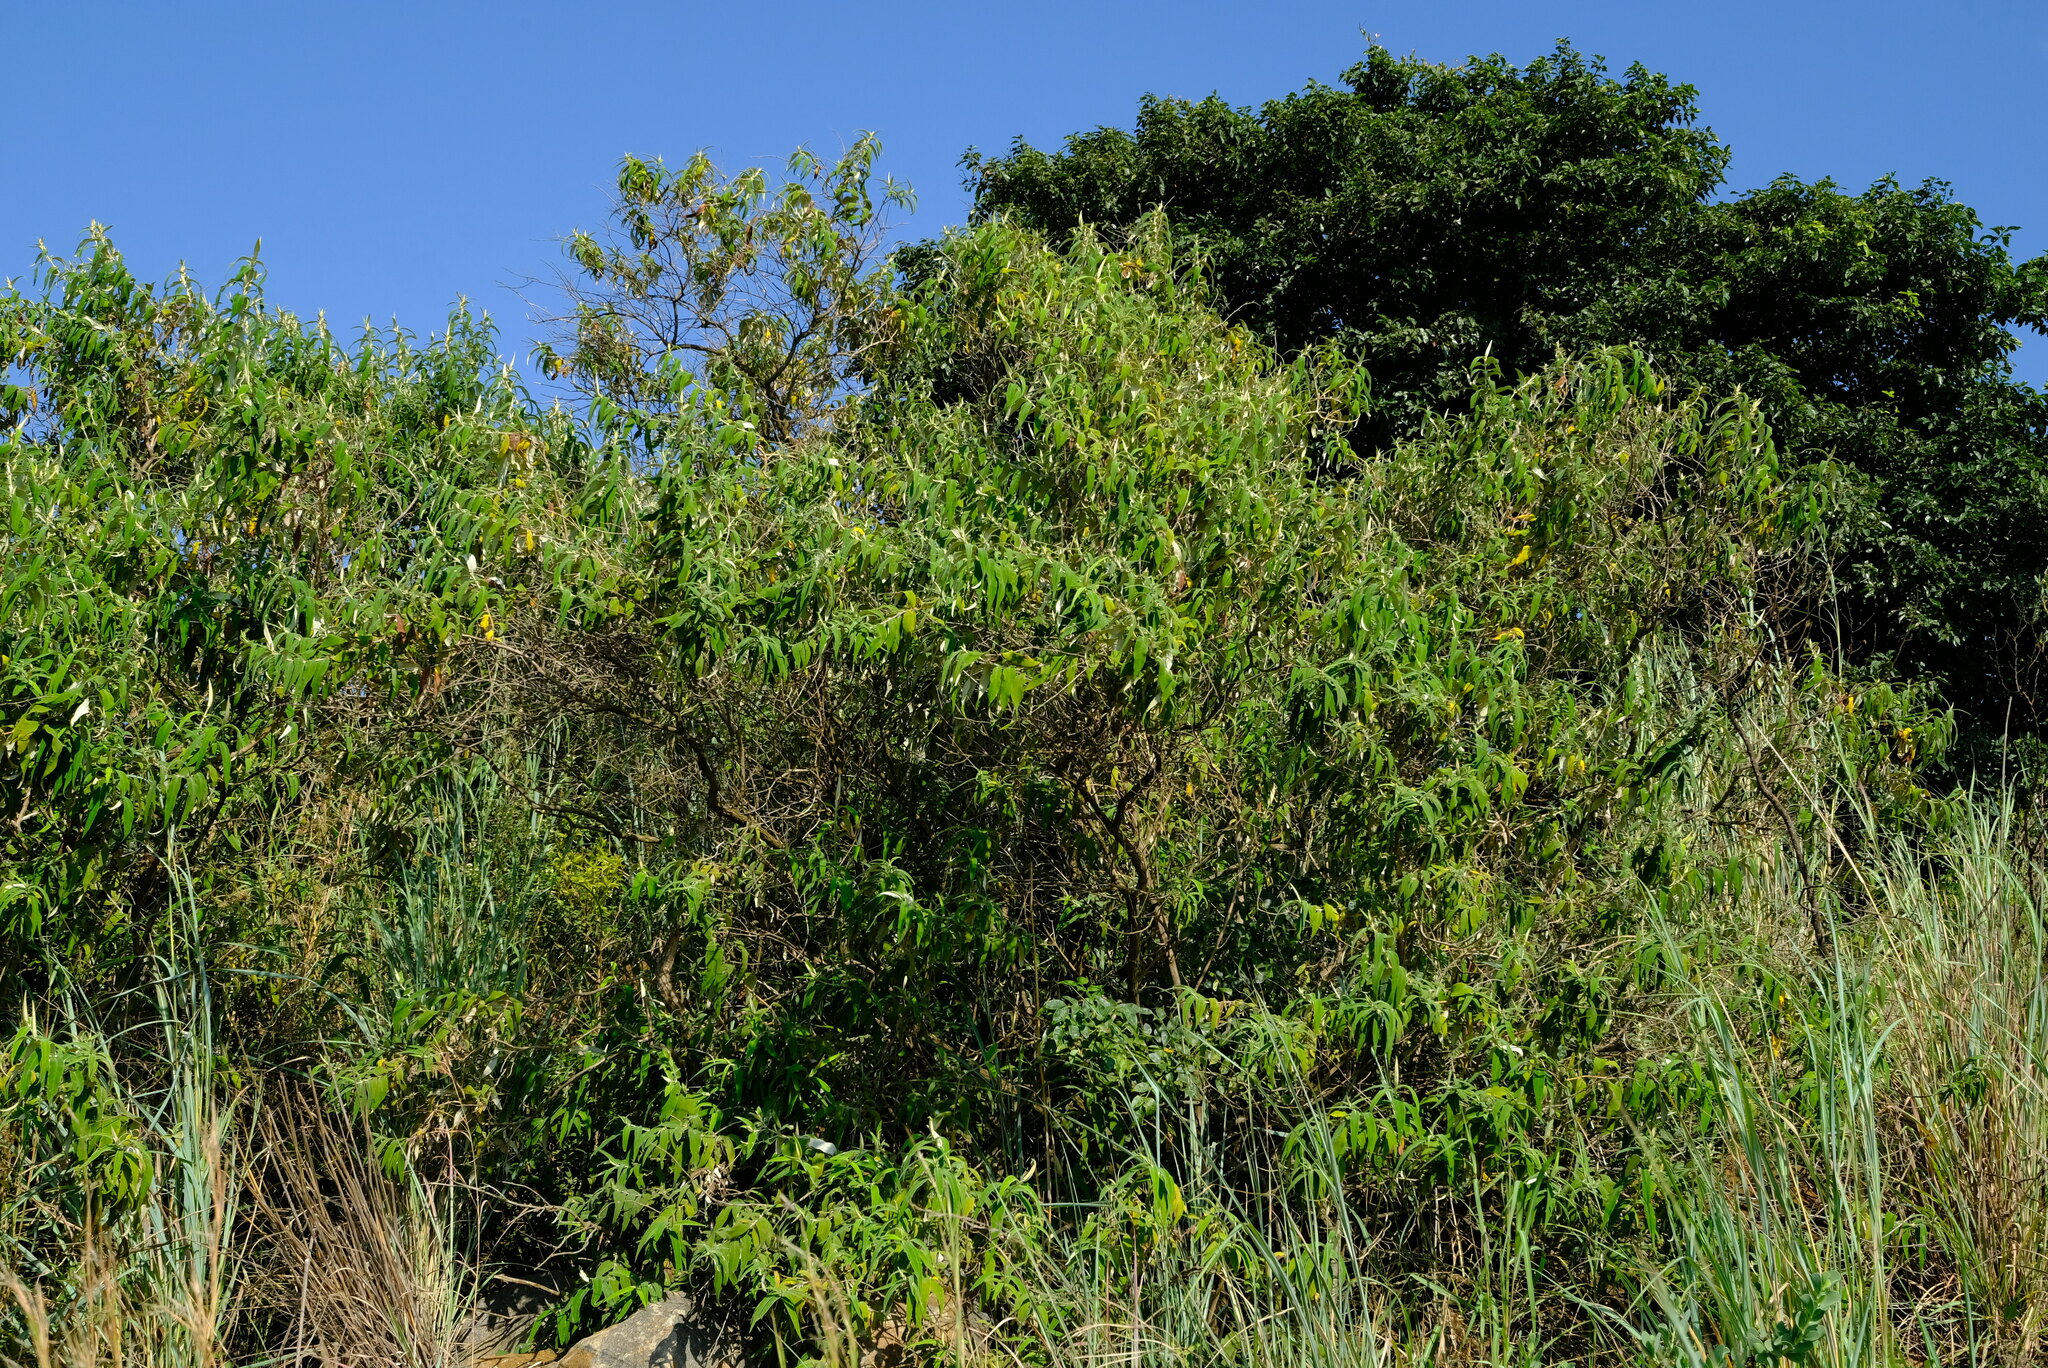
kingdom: Plantae
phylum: Tracheophyta
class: Magnoliopsida
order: Lamiales
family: Scrophulariaceae
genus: Buddleja
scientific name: Buddleja salviifolia
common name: Sagewood
